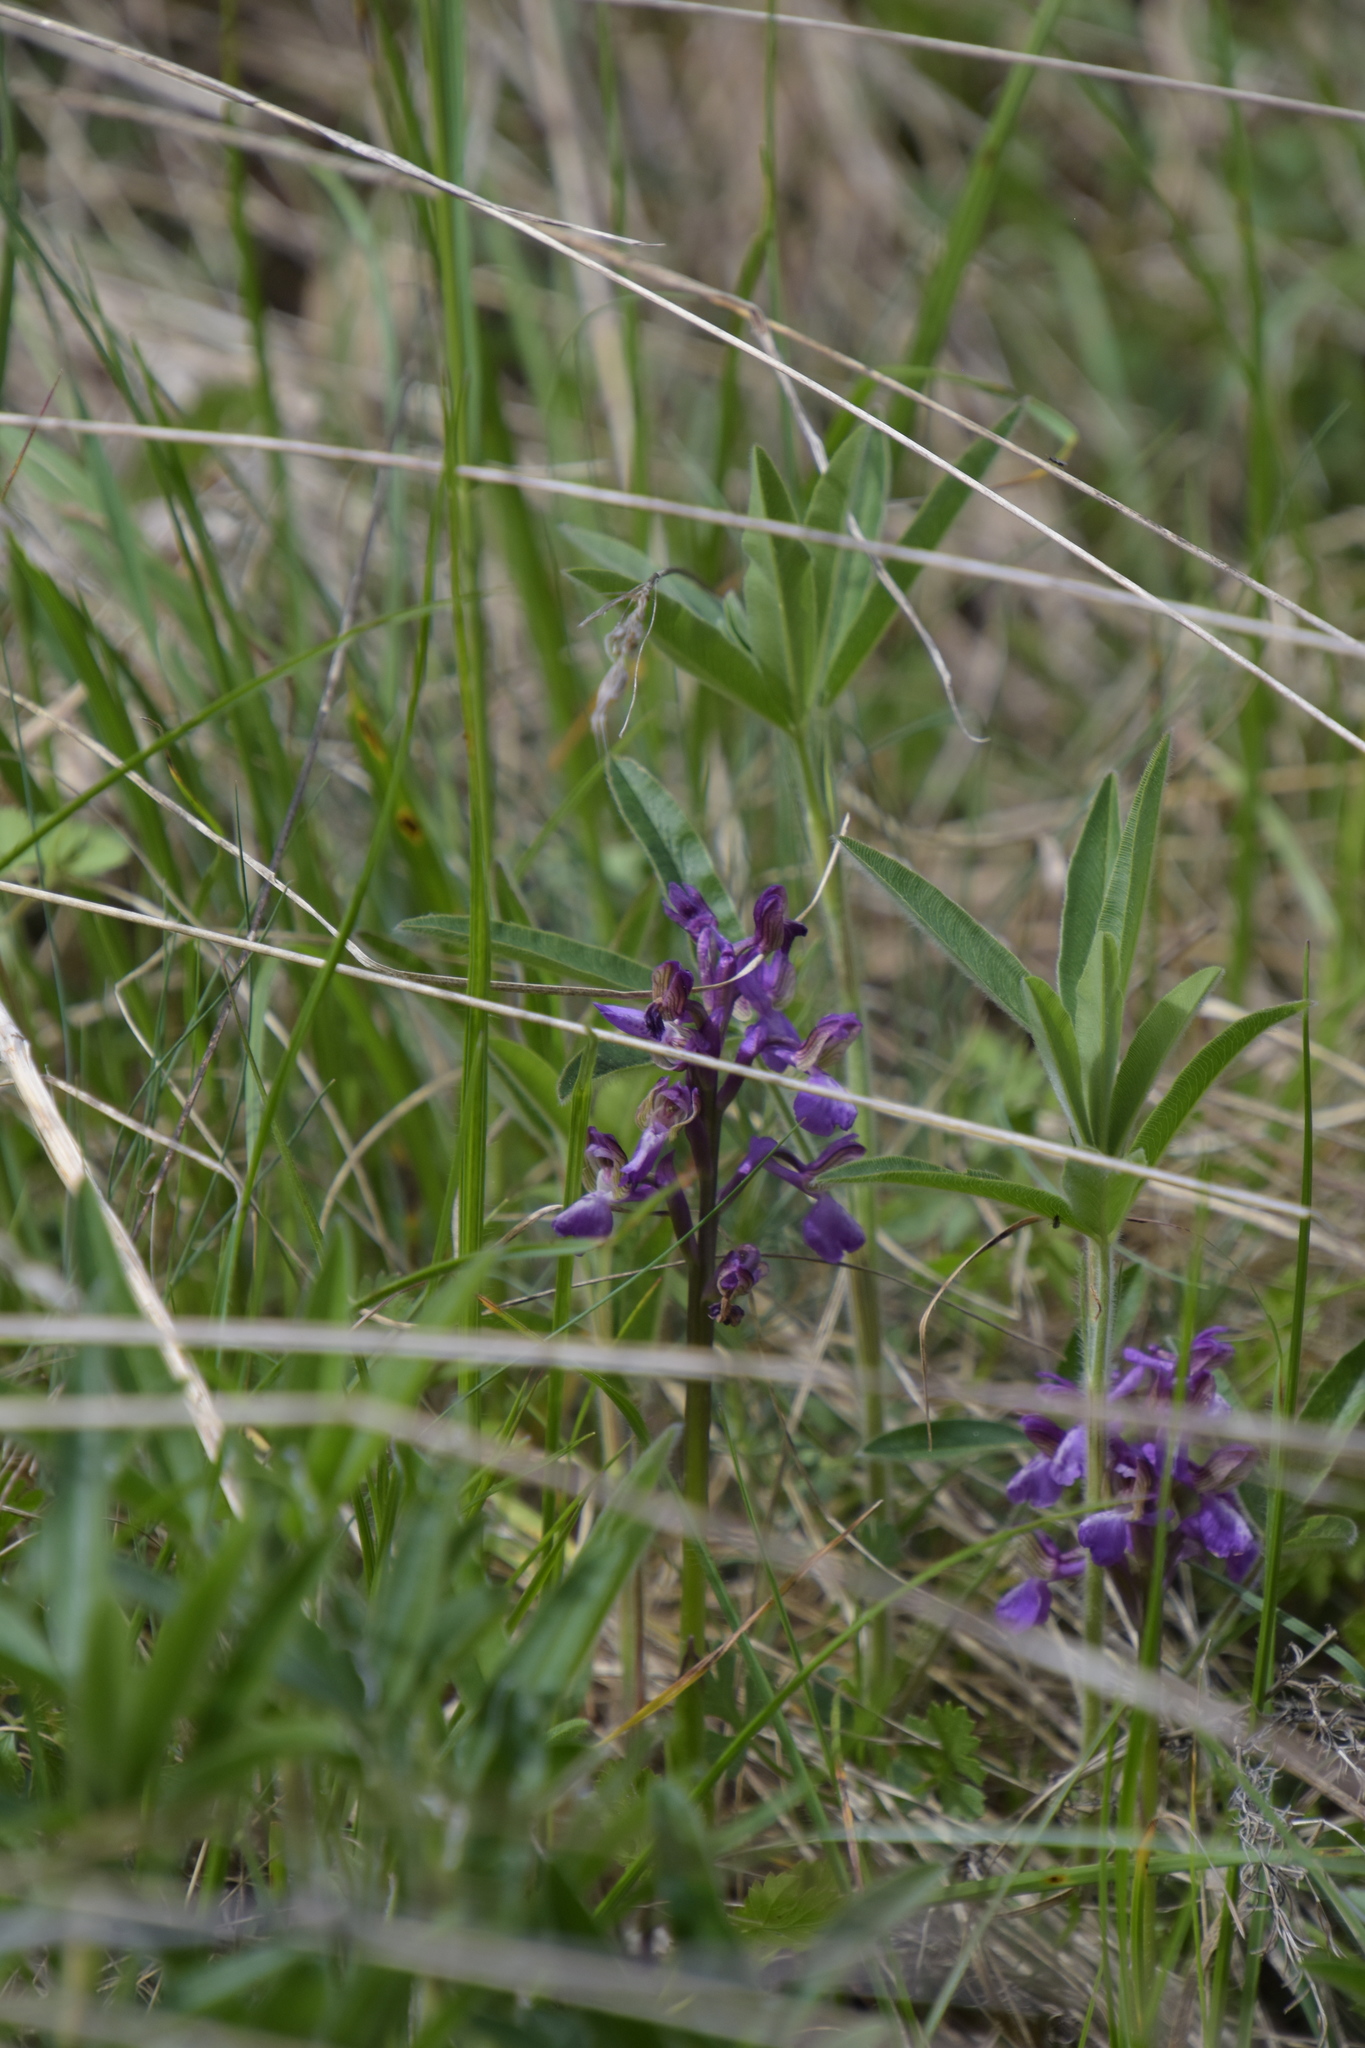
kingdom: Plantae
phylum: Tracheophyta
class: Liliopsida
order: Asparagales
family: Orchidaceae
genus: Anacamptis
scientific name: Anacamptis morio
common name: Green-winged orchid
